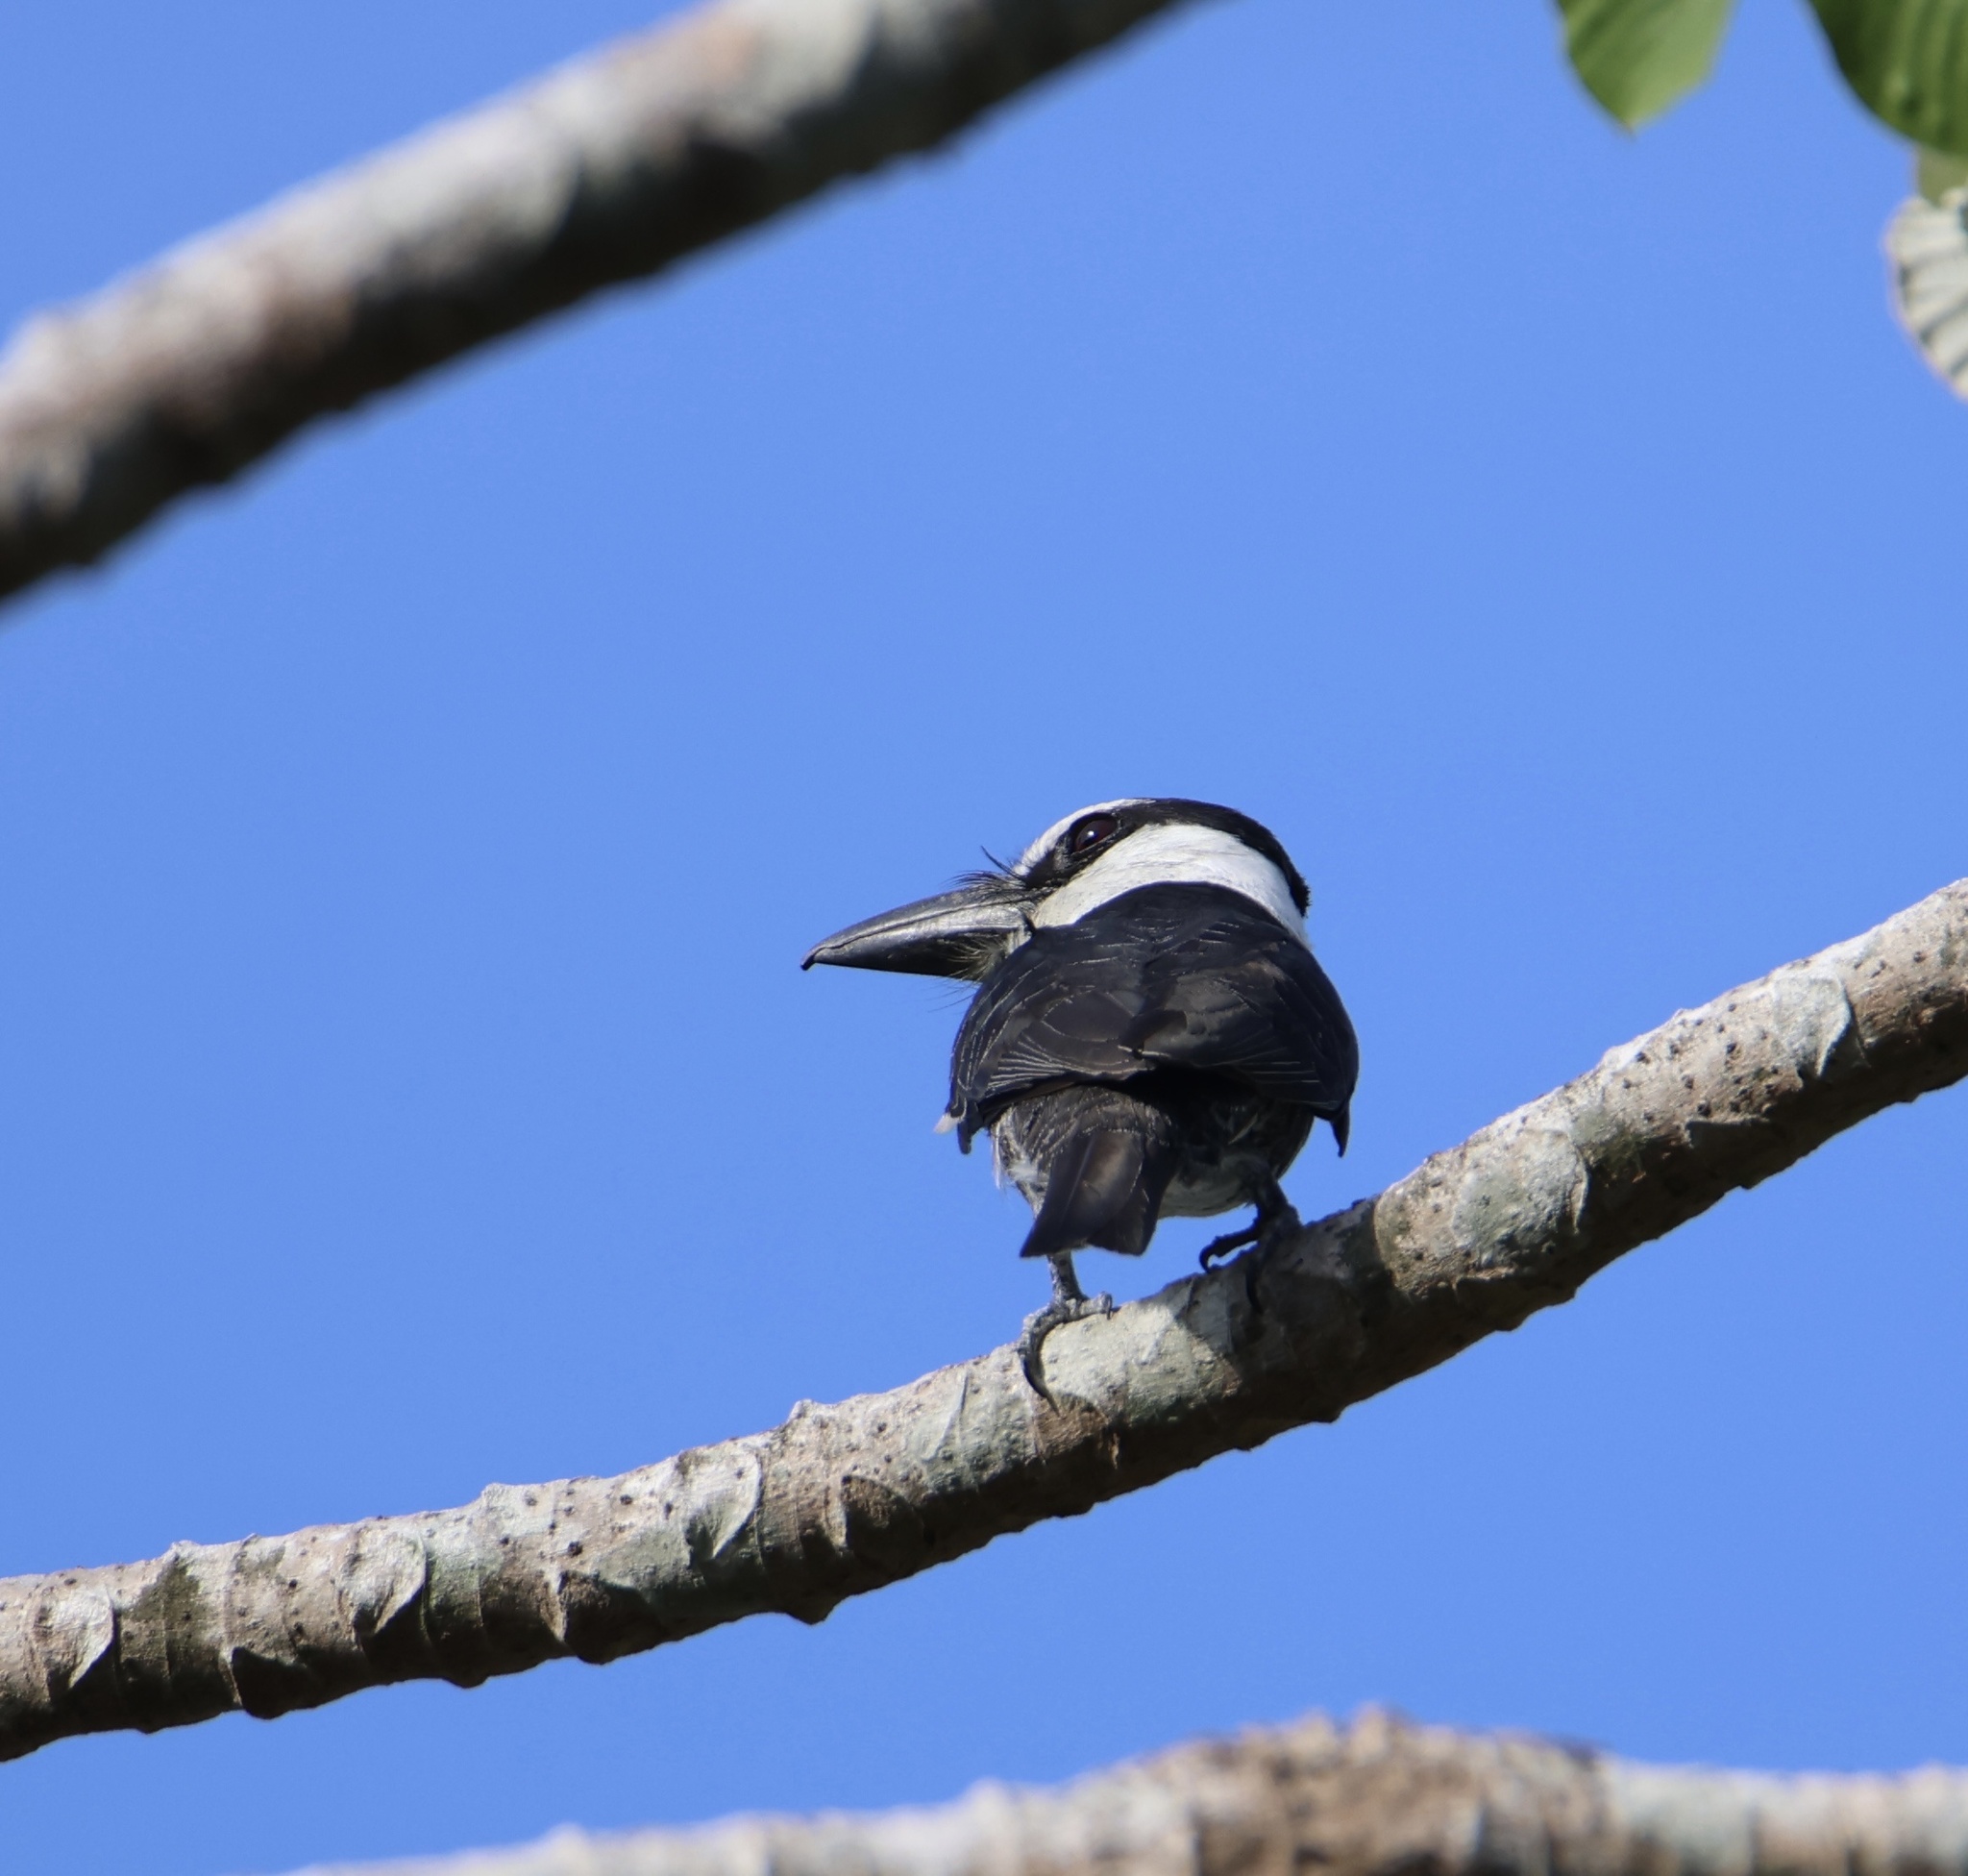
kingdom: Animalia
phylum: Chordata
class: Aves
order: Piciformes
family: Bucconidae
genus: Notharchus
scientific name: Notharchus hyperrhynchus
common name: White-necked puffbird
